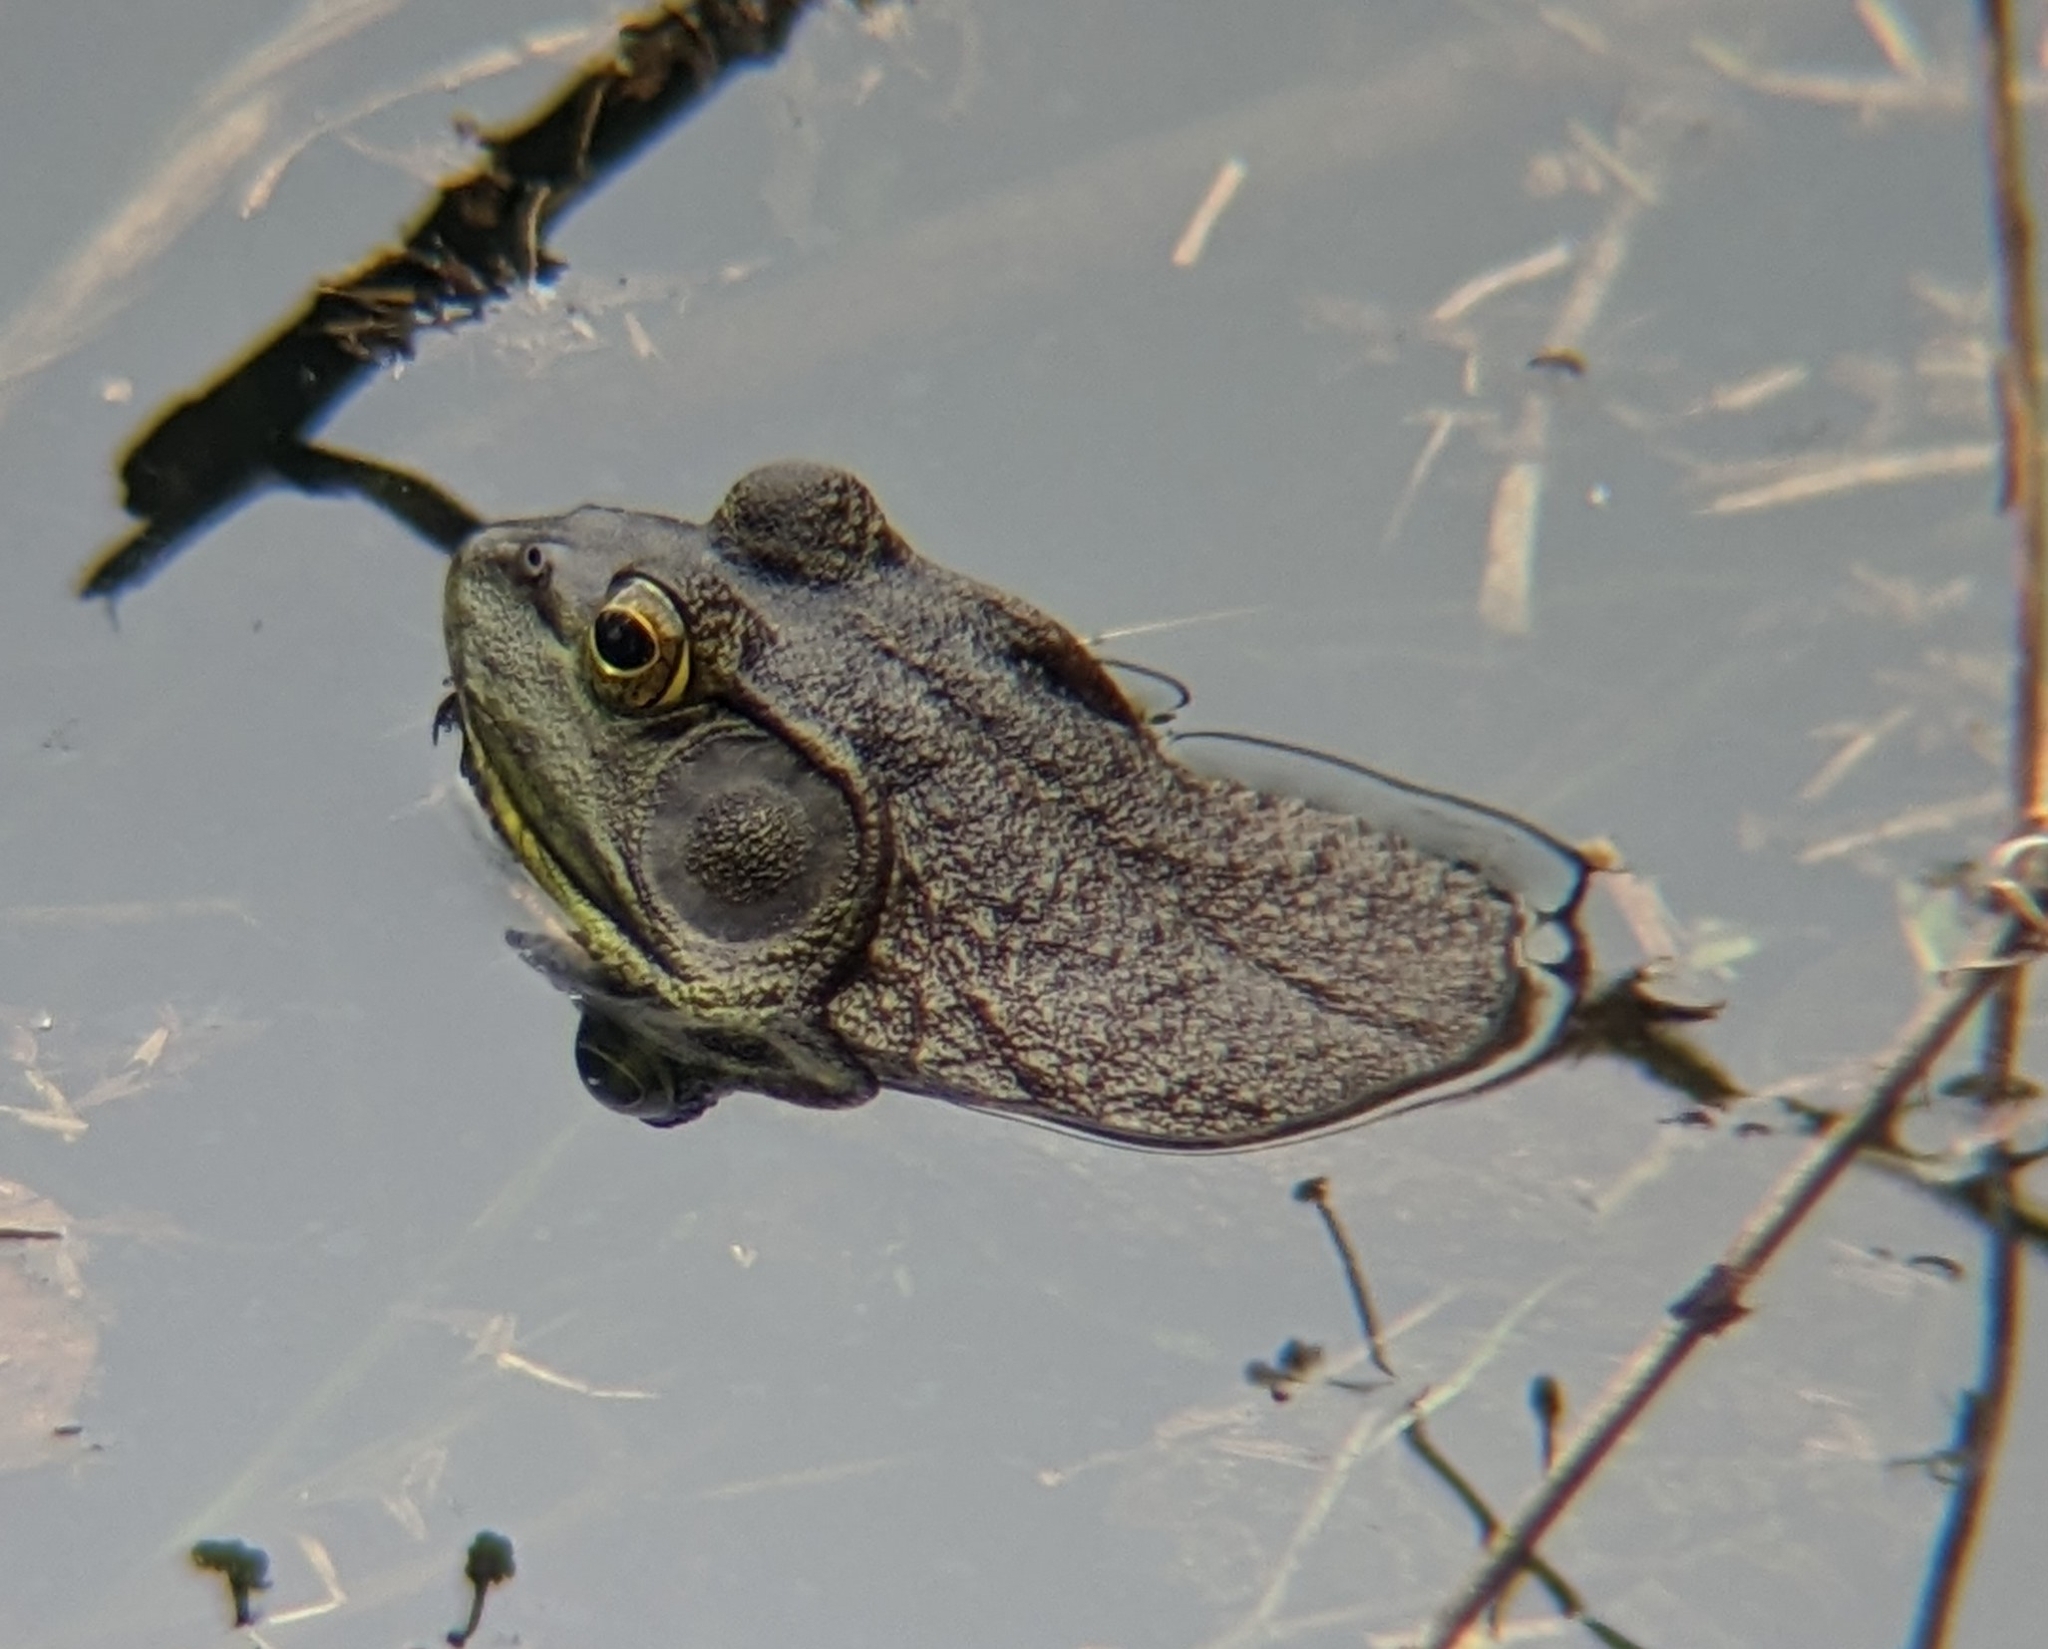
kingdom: Animalia
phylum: Chordata
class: Amphibia
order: Anura
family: Ranidae
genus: Lithobates
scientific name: Lithobates catesbeianus
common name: American bullfrog
